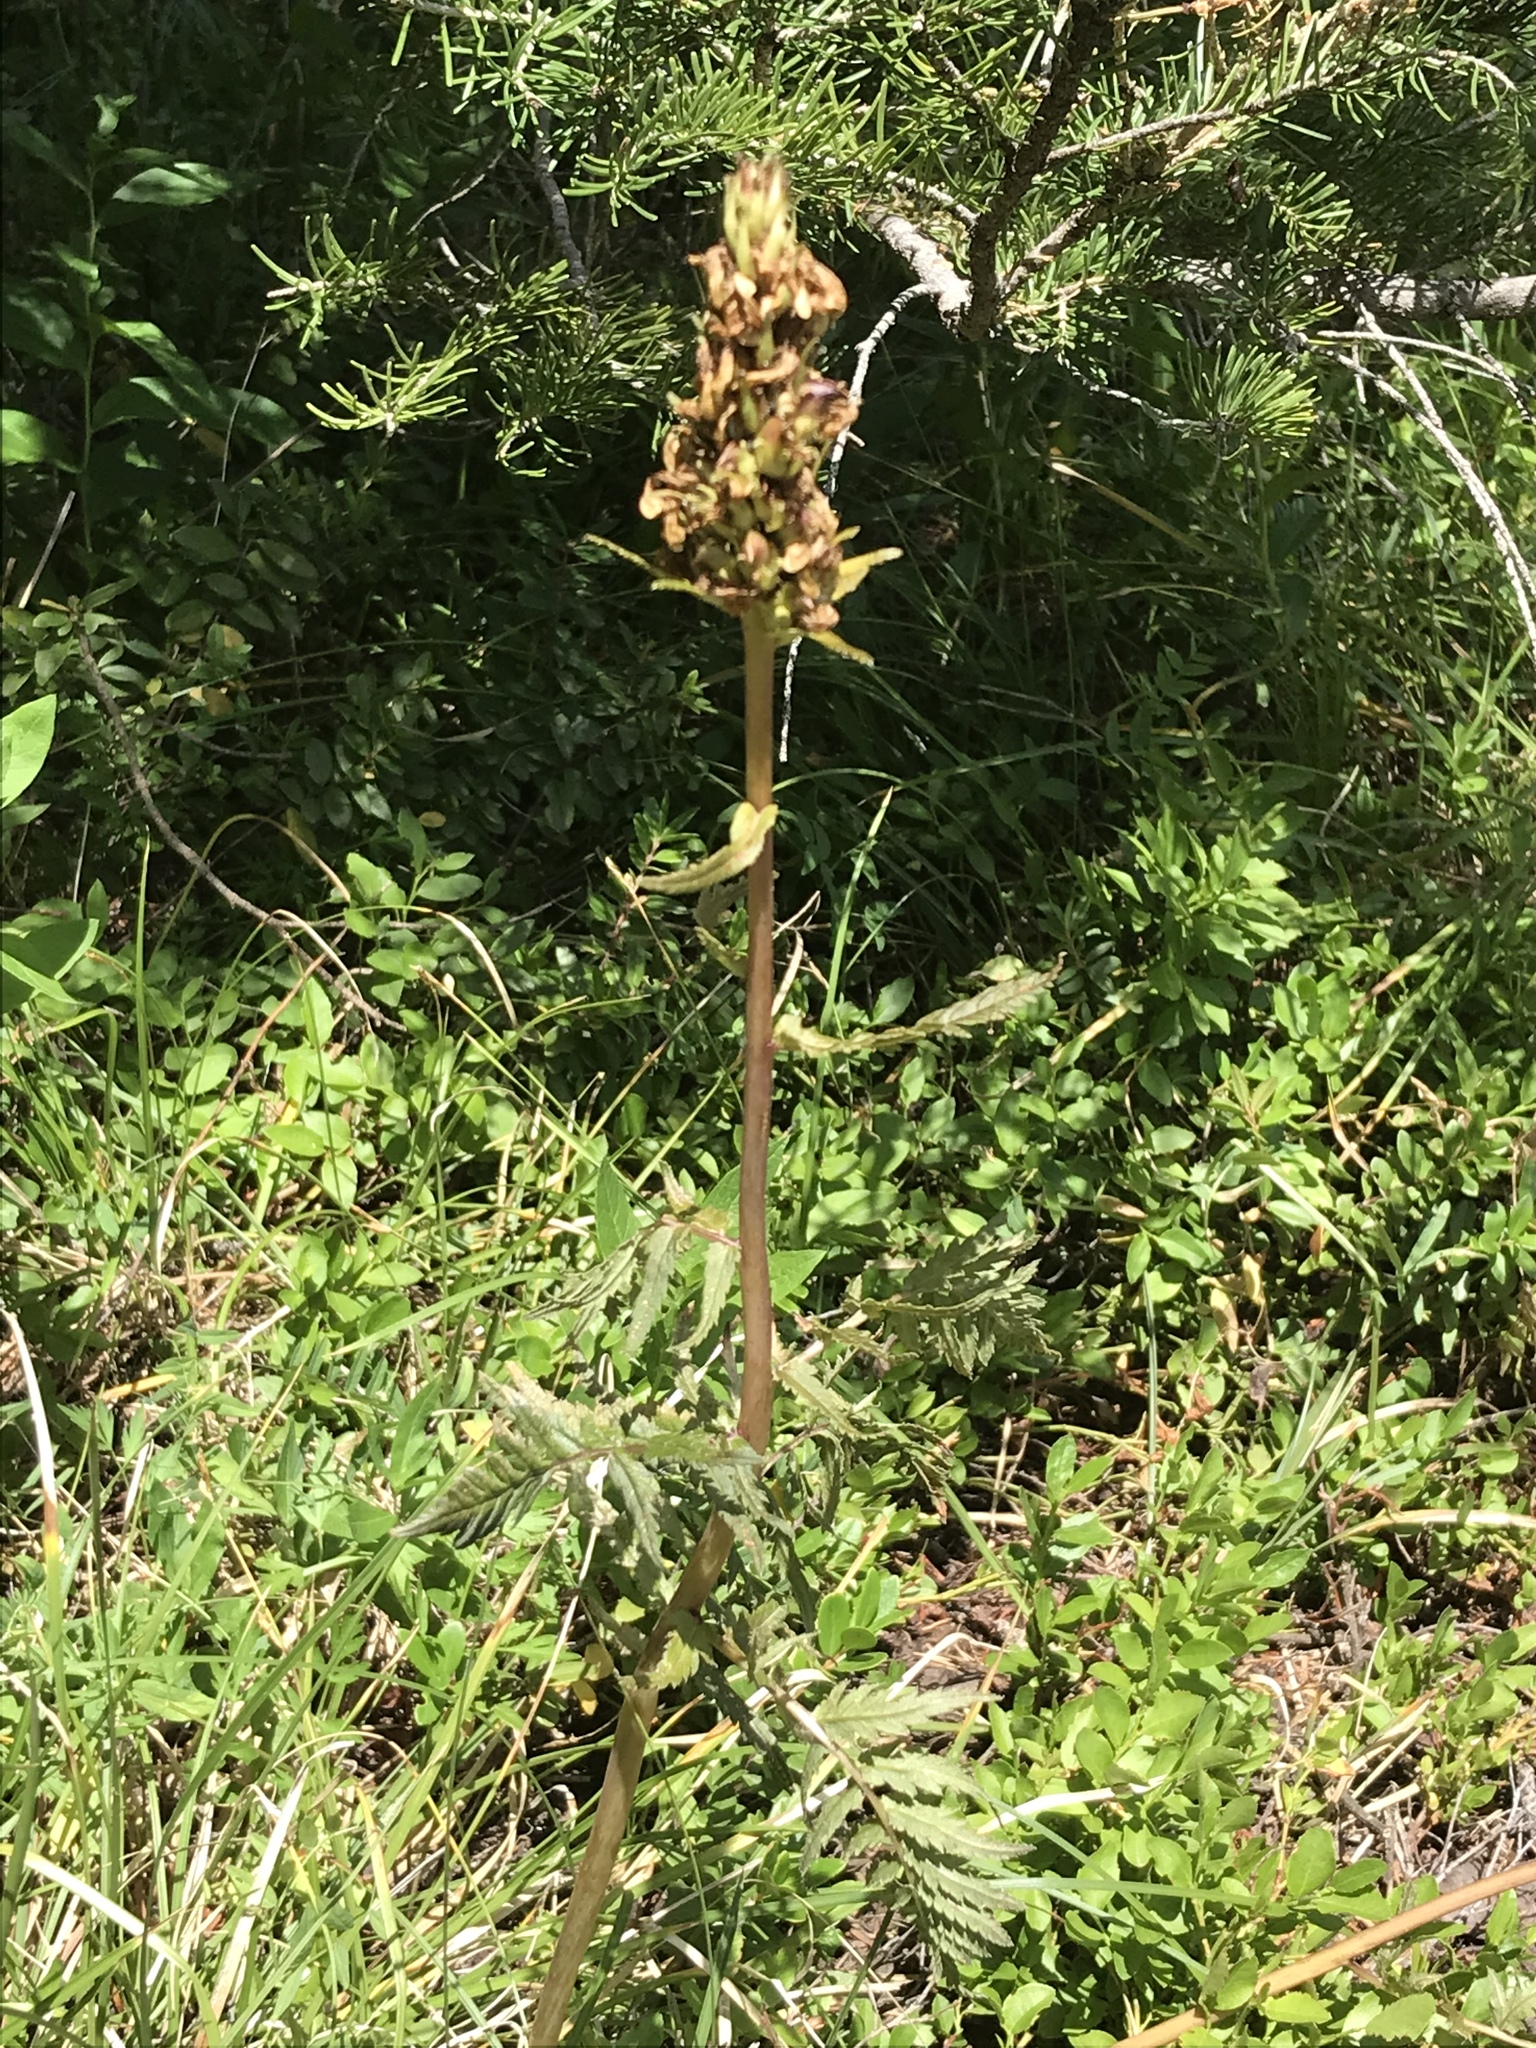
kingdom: Plantae
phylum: Tracheophyta
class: Magnoliopsida
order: Lamiales
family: Orobanchaceae
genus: Pedicularis
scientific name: Pedicularis bracteosa
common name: Bracted lousewort
